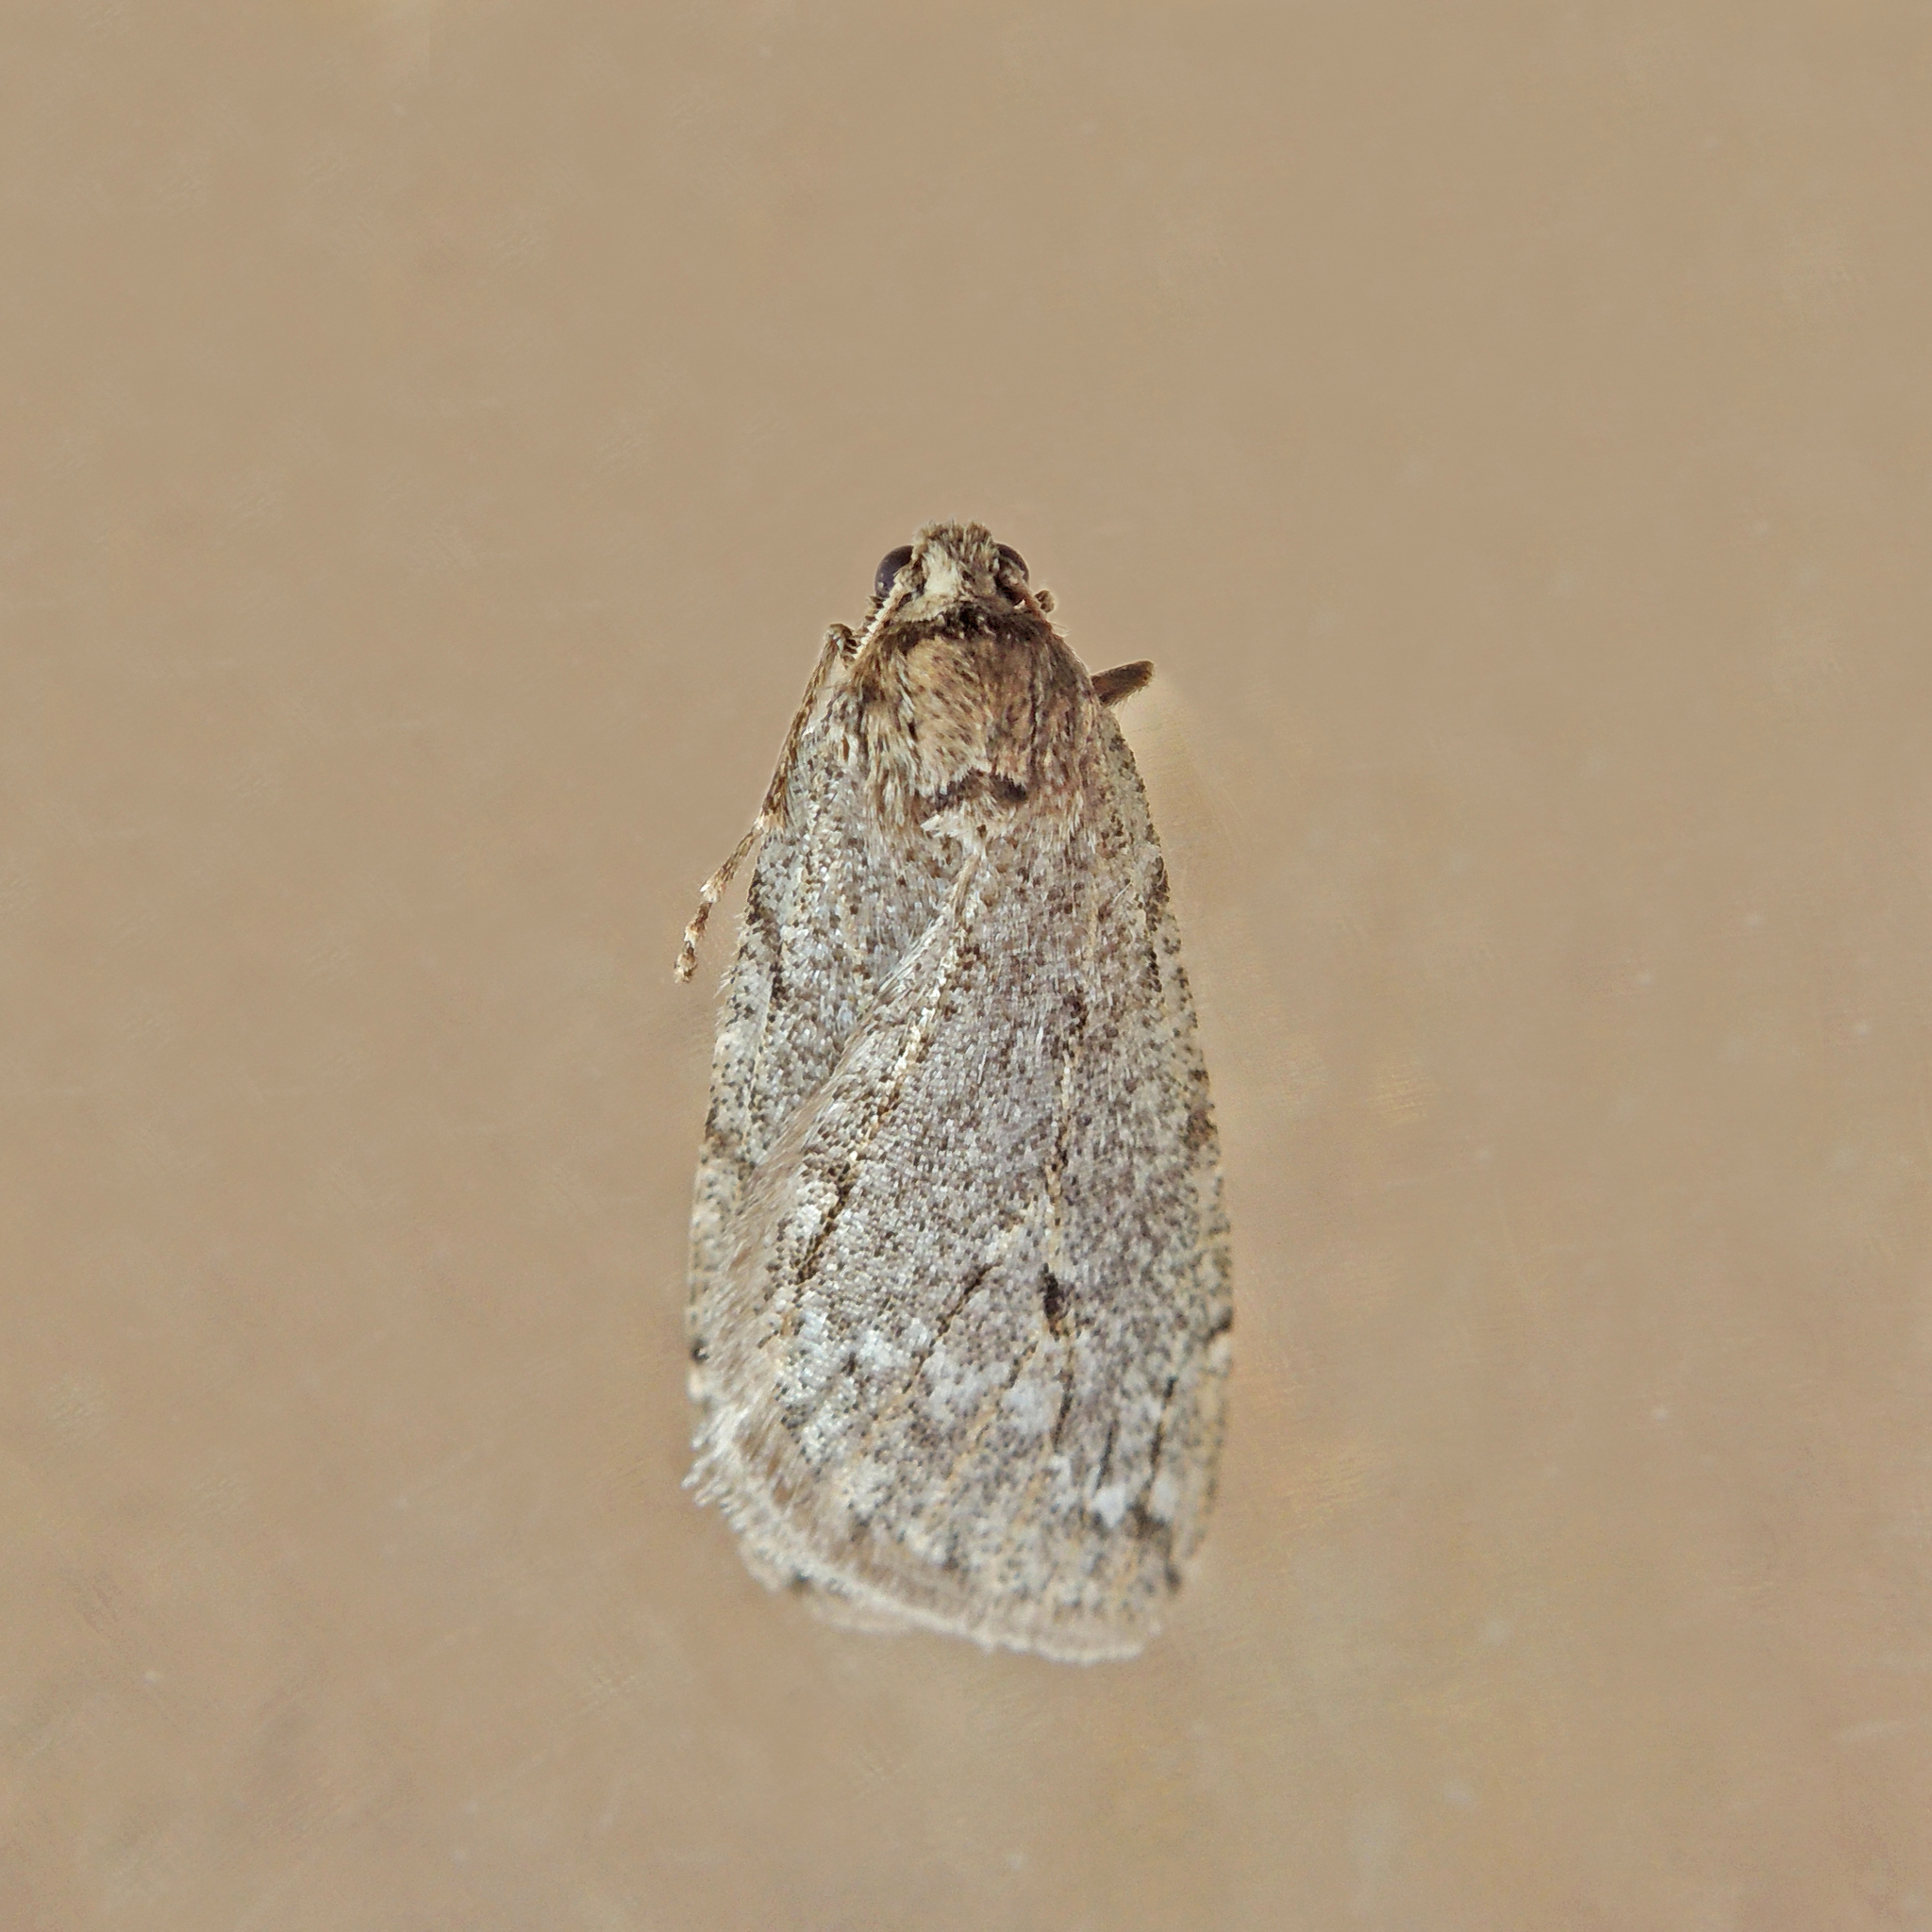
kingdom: Animalia
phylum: Arthropoda
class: Insecta
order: Lepidoptera
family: Geometridae
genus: Paleacrita
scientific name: Paleacrita vernata
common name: Spring cankerworm
